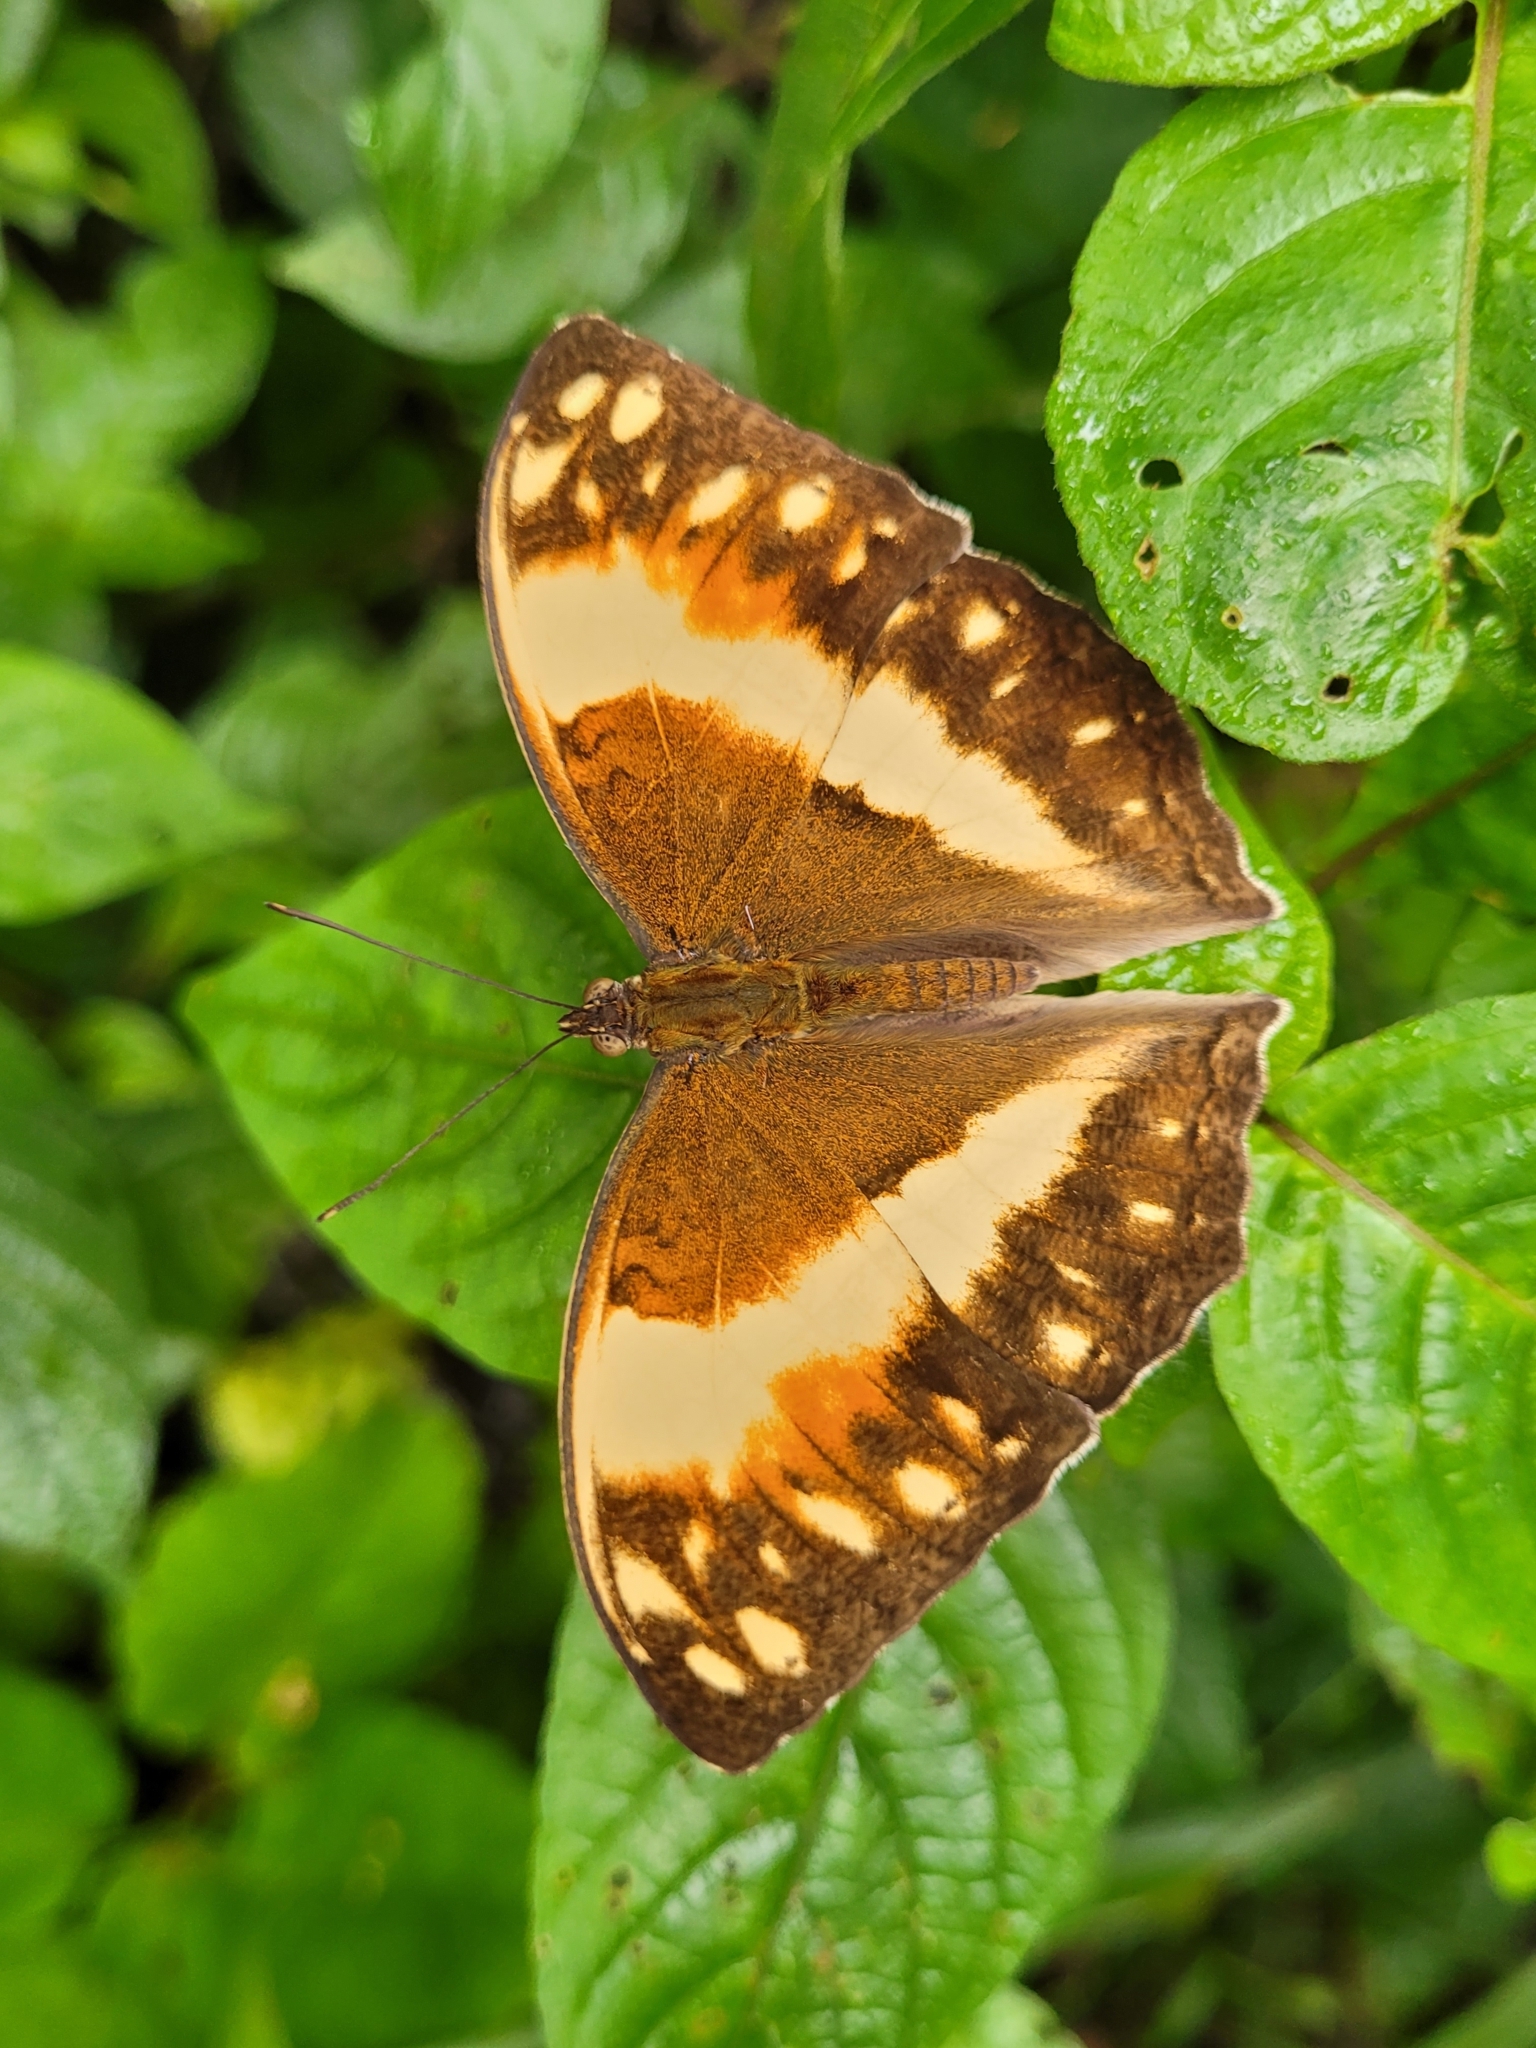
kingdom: Animalia
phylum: Arthropoda
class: Insecta
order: Lepidoptera
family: Nymphalidae
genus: Cymothoe
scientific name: Cymothoe
